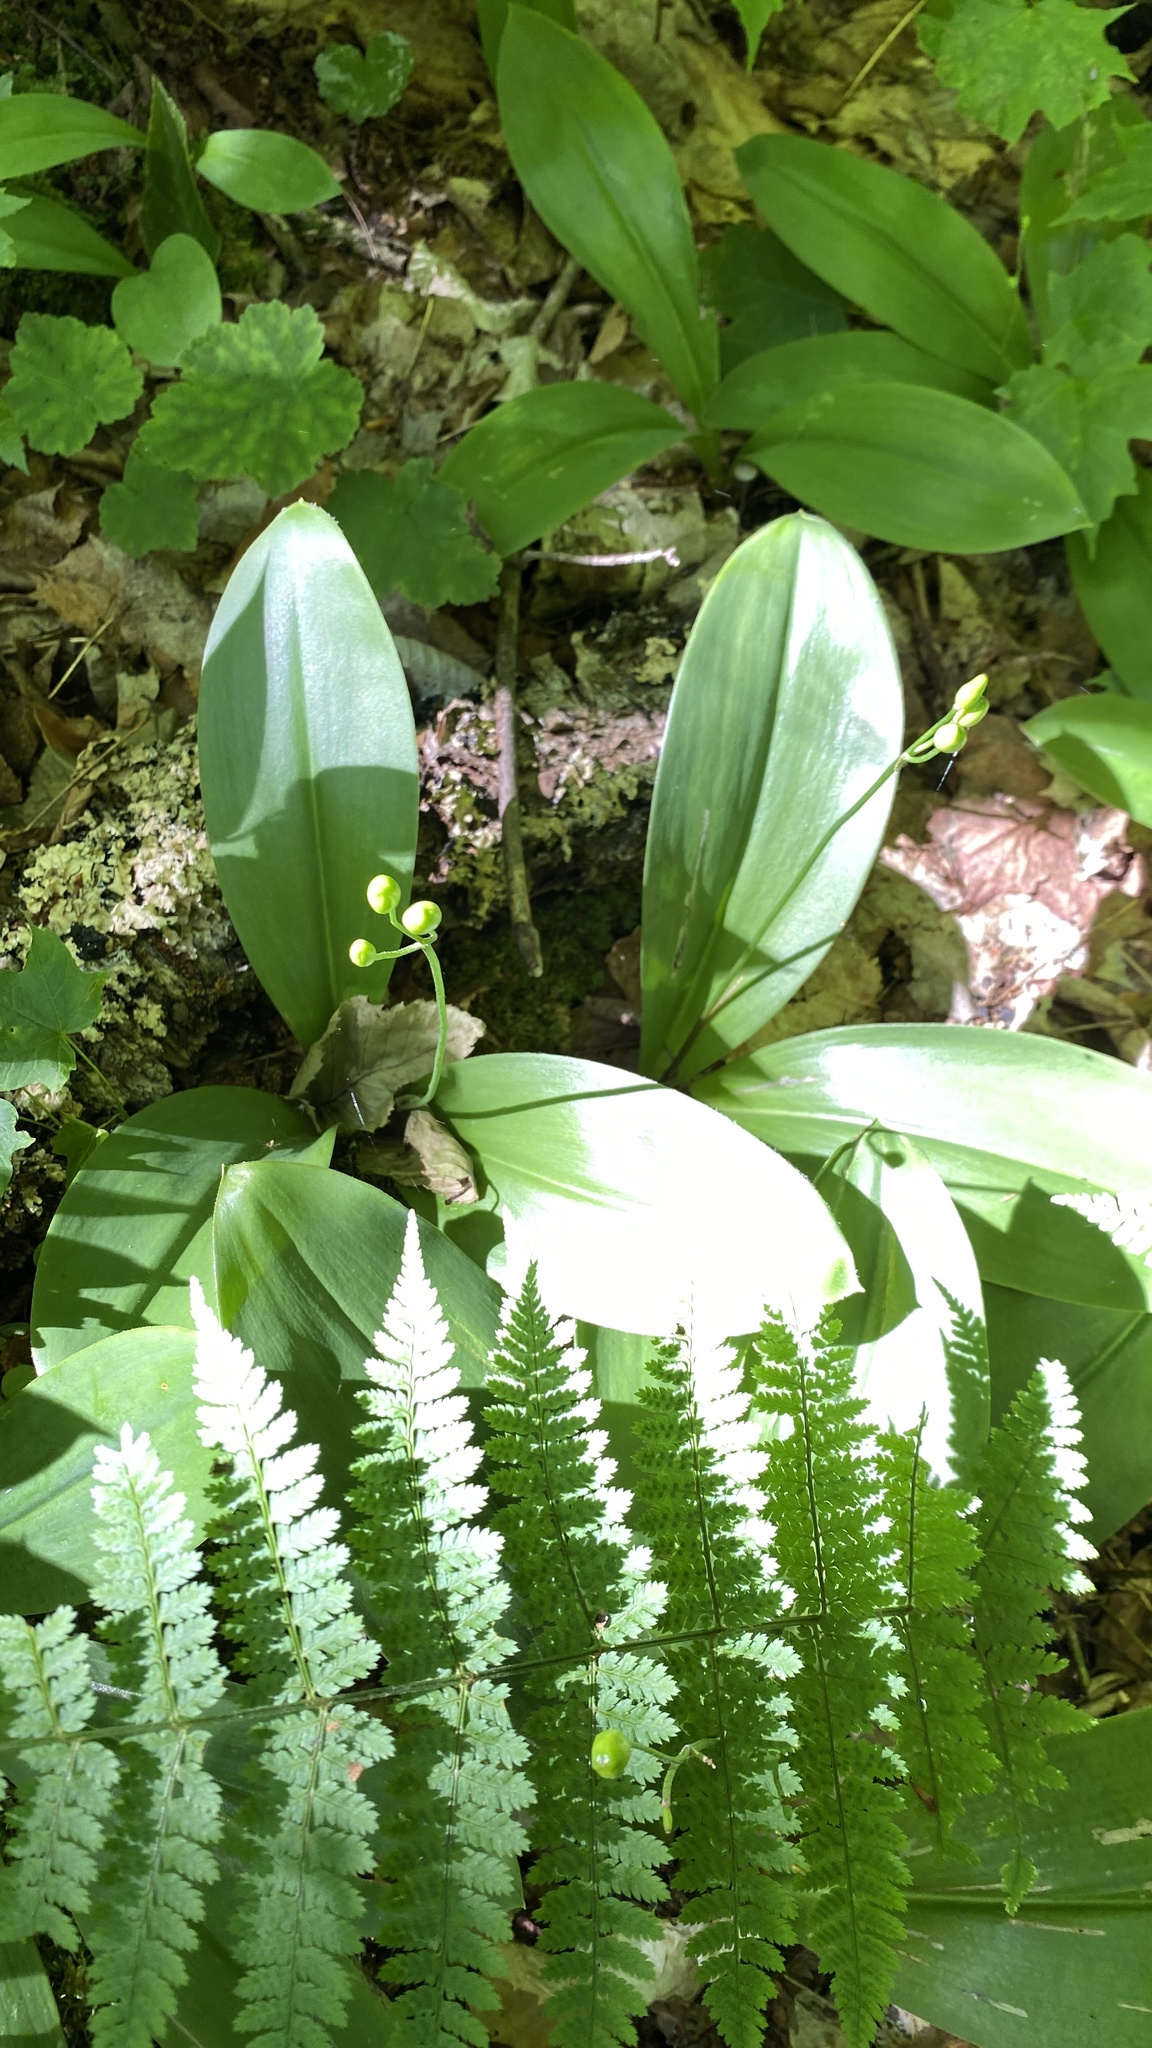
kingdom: Plantae
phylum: Tracheophyta
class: Liliopsida
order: Liliales
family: Liliaceae
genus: Clintonia
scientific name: Clintonia borealis
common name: Yellow clintonia
